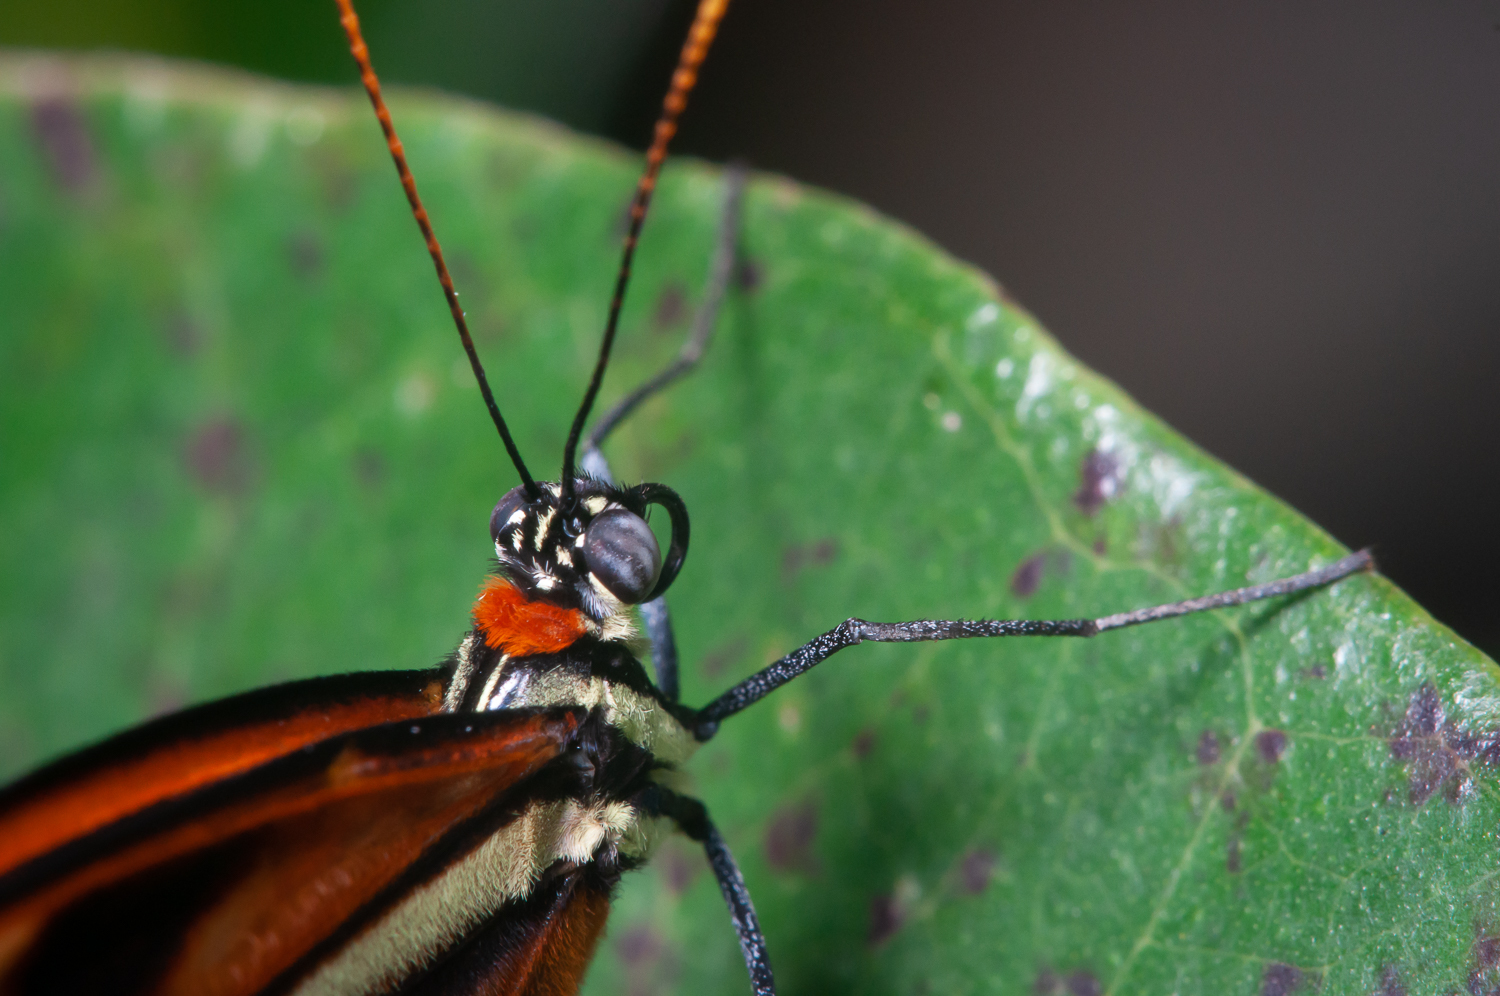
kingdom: Animalia
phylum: Arthropoda
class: Insecta
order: Lepidoptera
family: Nymphalidae
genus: Ithomia
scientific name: Ithomia heraldica
